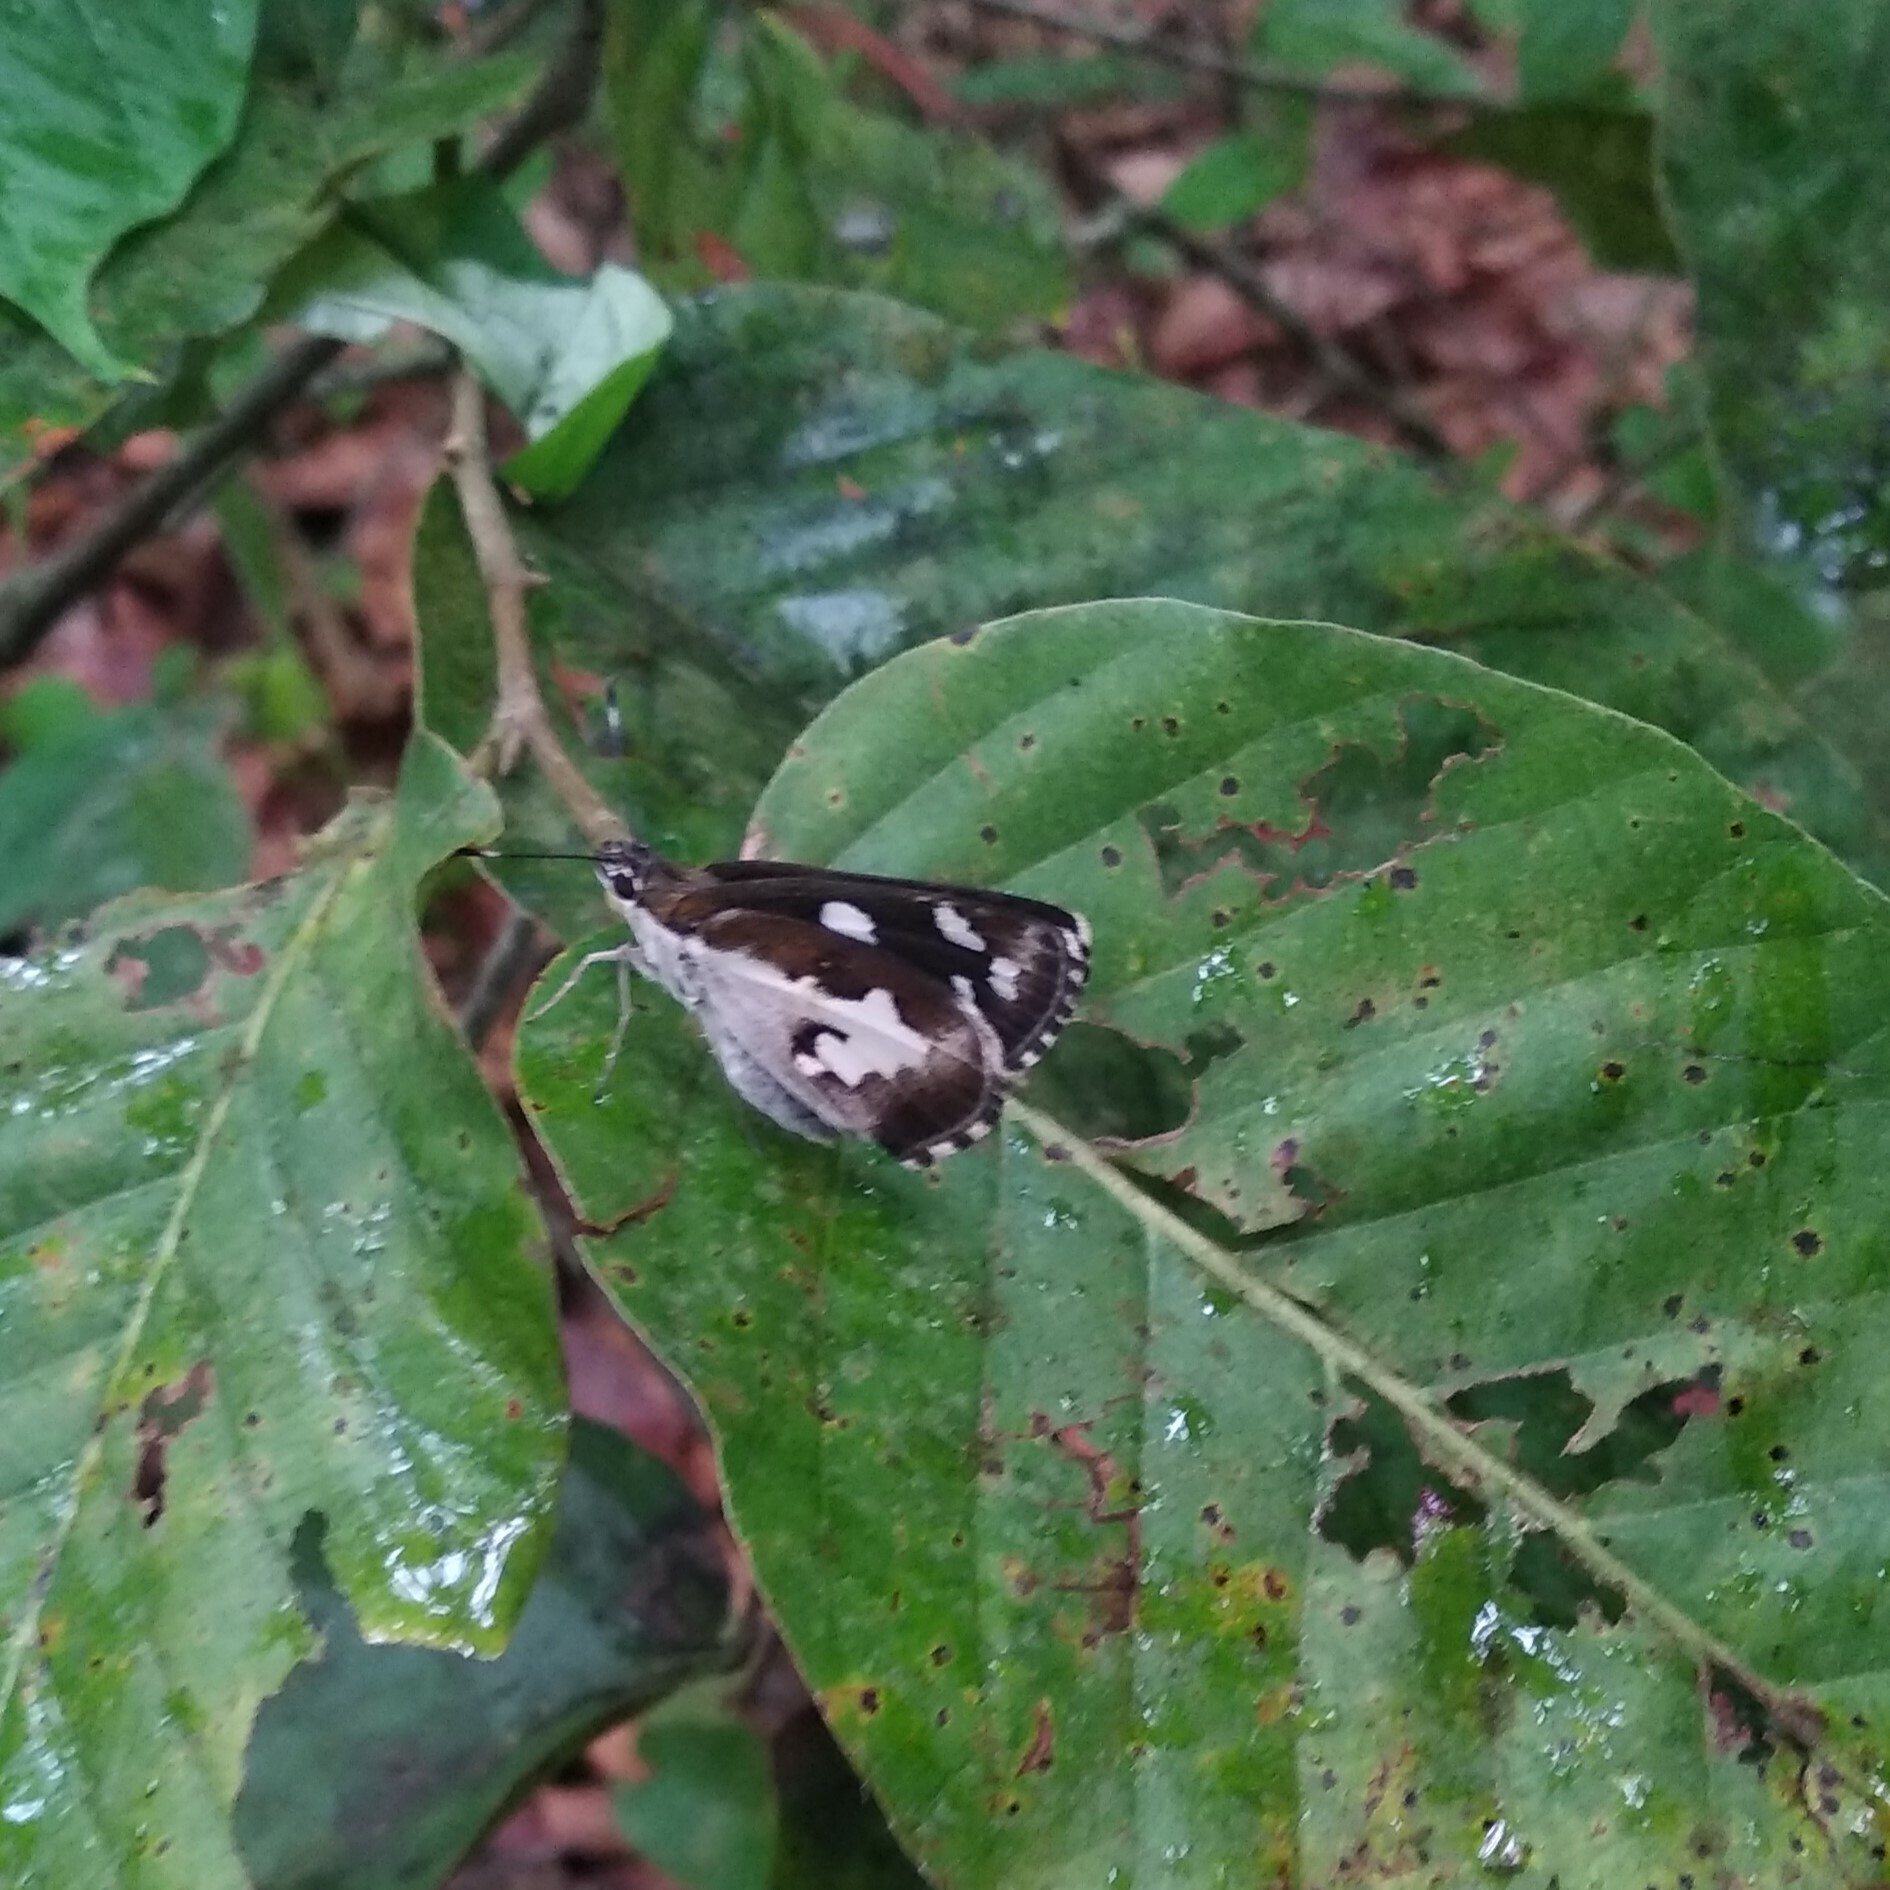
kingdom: Animalia
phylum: Arthropoda
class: Insecta
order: Lepidoptera
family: Hesperiidae
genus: Udaspes
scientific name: Udaspes folus
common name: Grass demon
